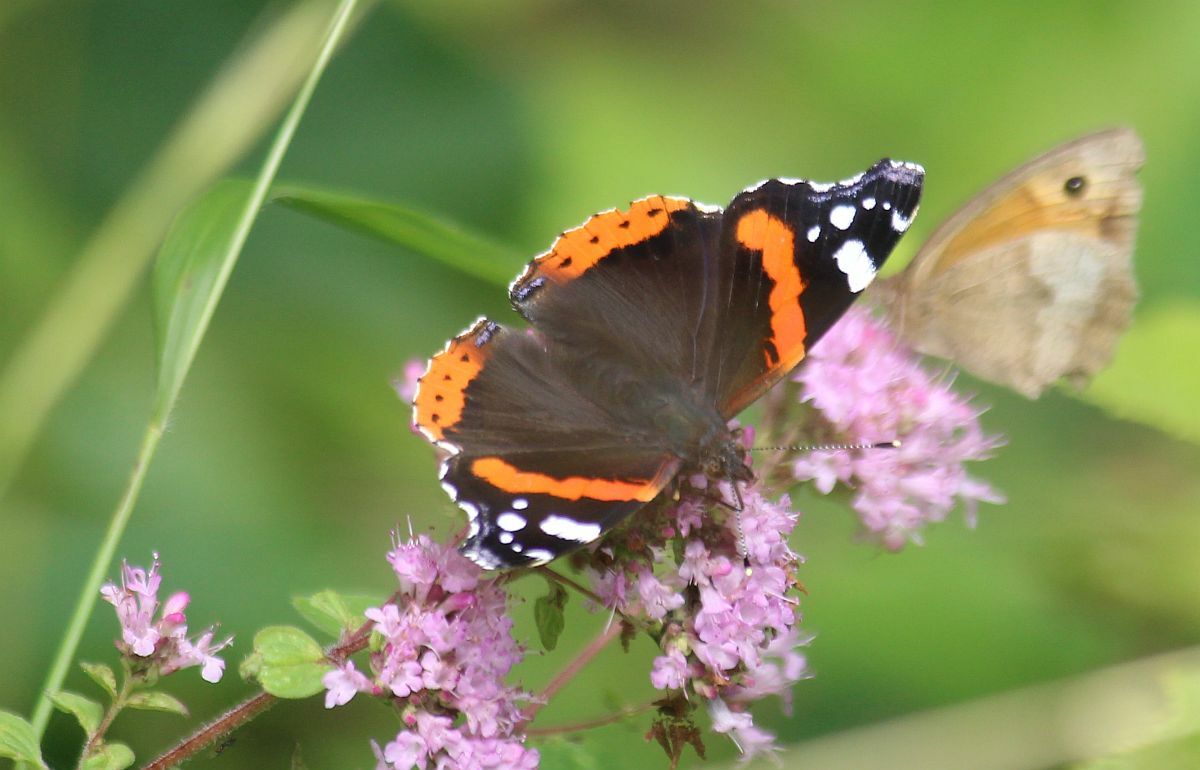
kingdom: Animalia
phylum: Arthropoda
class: Insecta
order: Lepidoptera
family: Nymphalidae
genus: Vanessa
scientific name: Vanessa atalanta
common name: Red admiral
